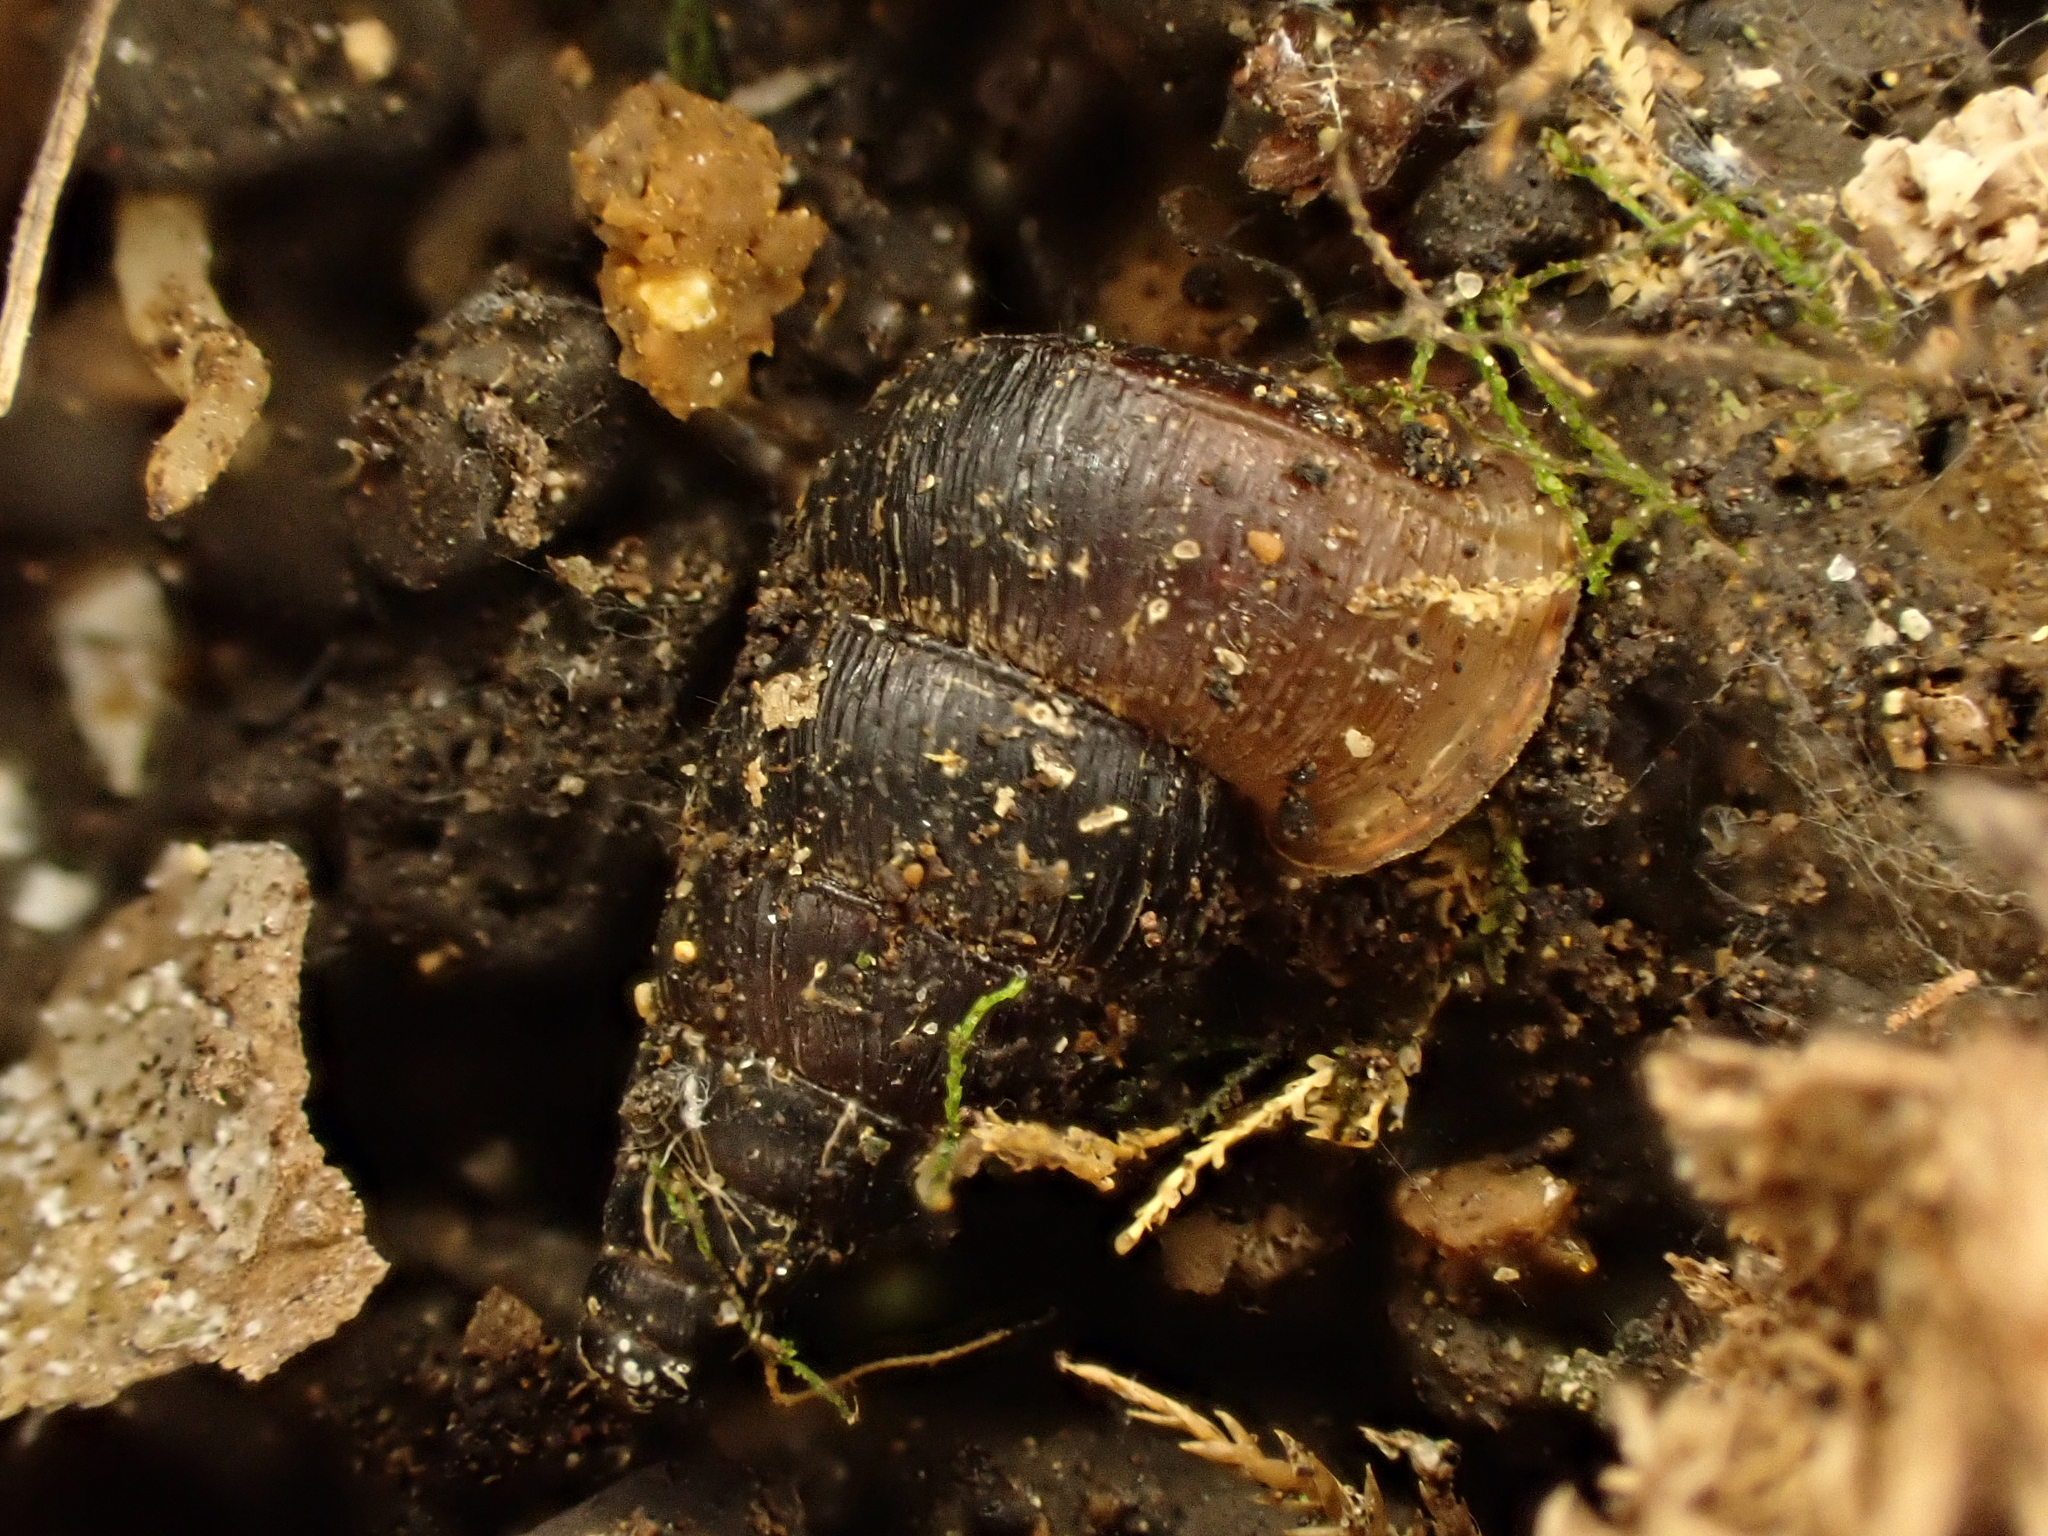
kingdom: Animalia
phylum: Mollusca
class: Gastropoda
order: Architaenioglossa
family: Pupinidae
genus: Liarea
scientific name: Liarea hochstetteri
